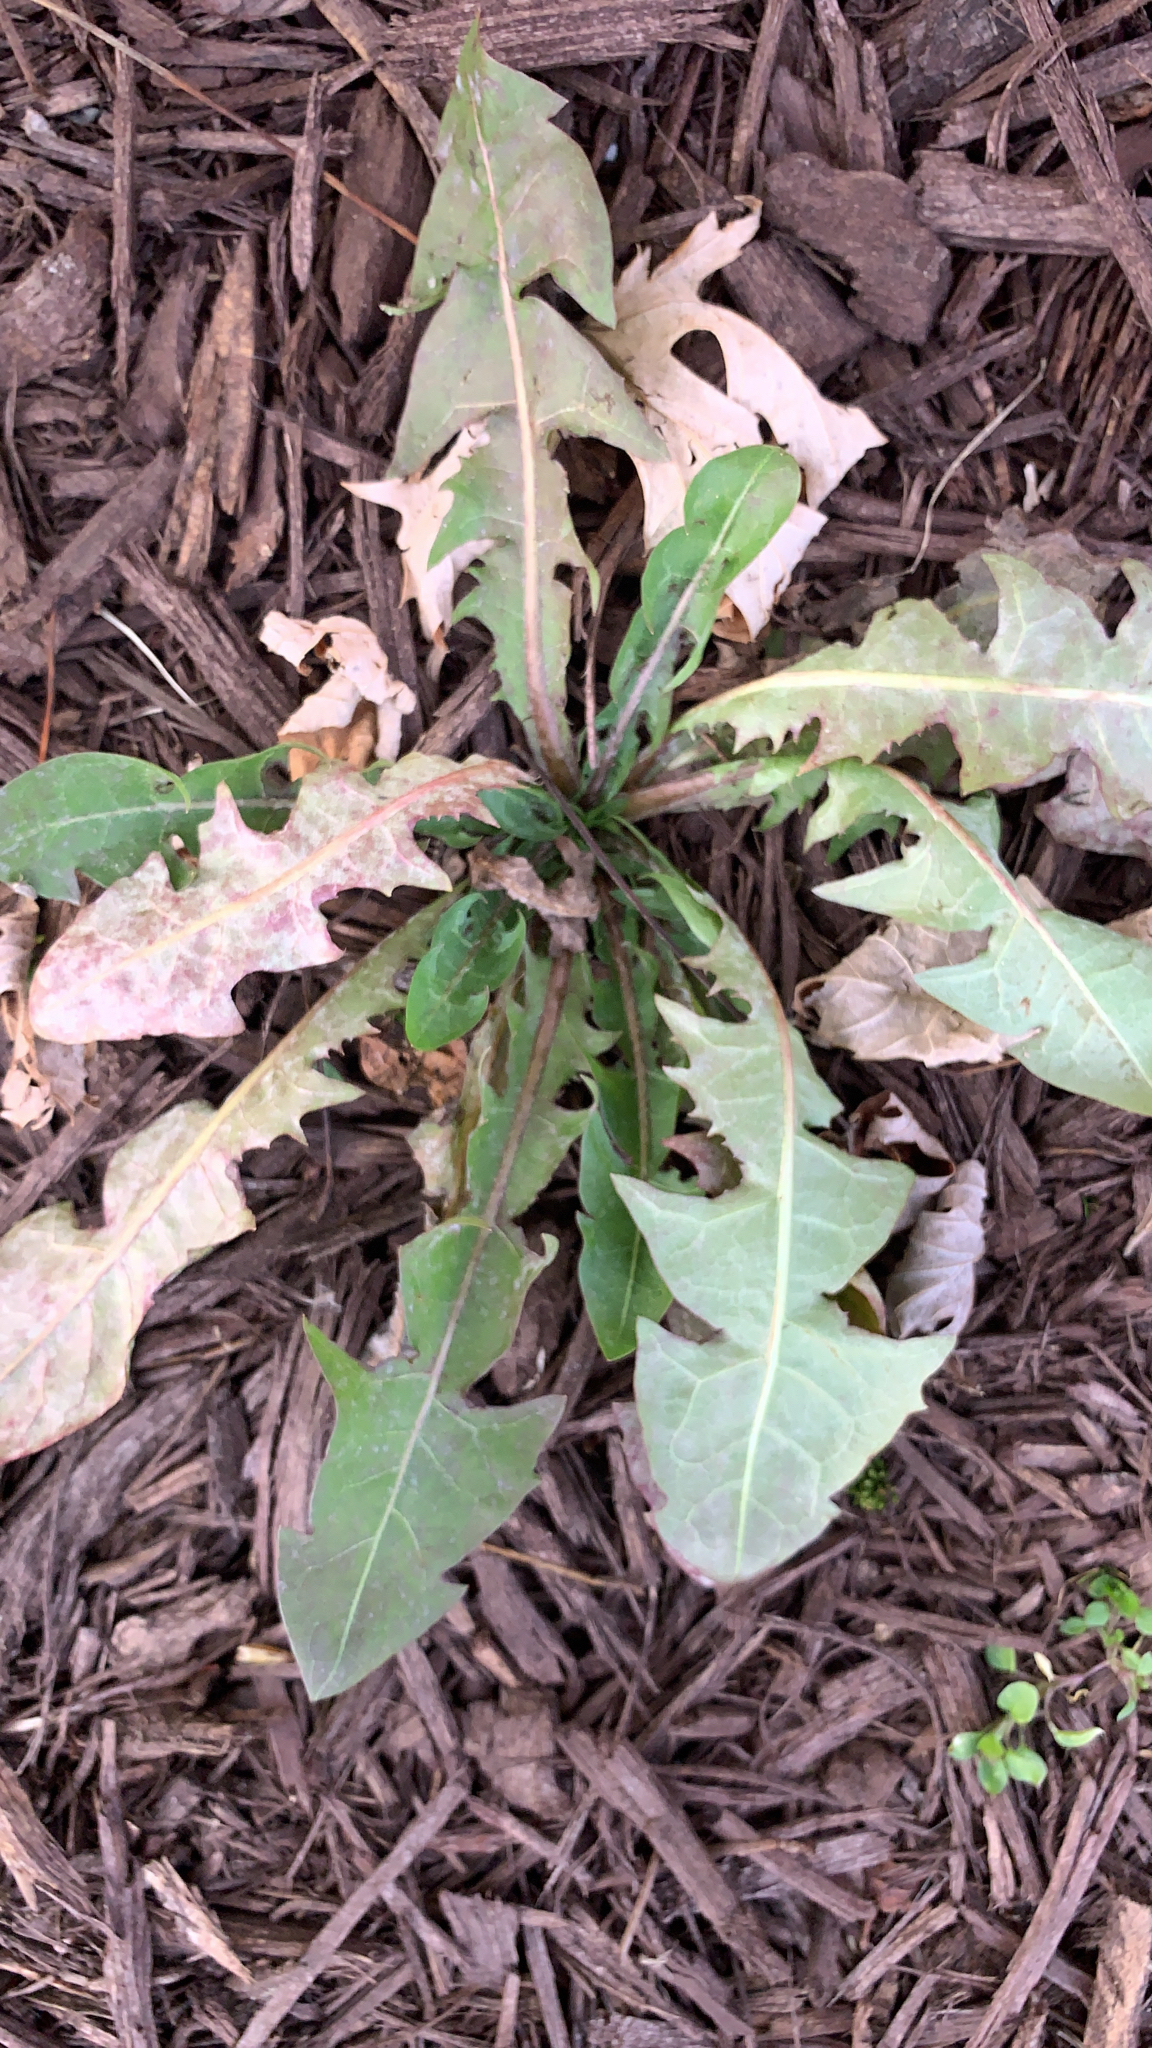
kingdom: Plantae
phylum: Tracheophyta
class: Magnoliopsida
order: Asterales
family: Asteraceae
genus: Taraxacum
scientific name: Taraxacum officinale
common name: Common dandelion
